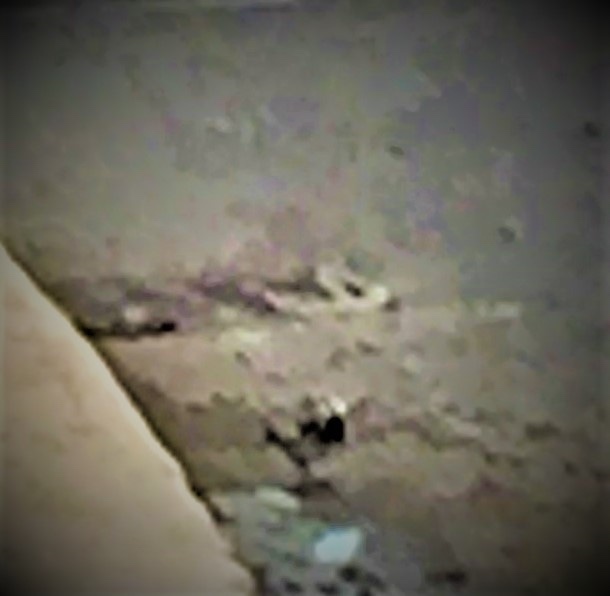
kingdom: Animalia
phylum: Chordata
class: Aves
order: Passeriformes
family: Motacillidae
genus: Motacilla
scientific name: Motacilla alba
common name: White wagtail
